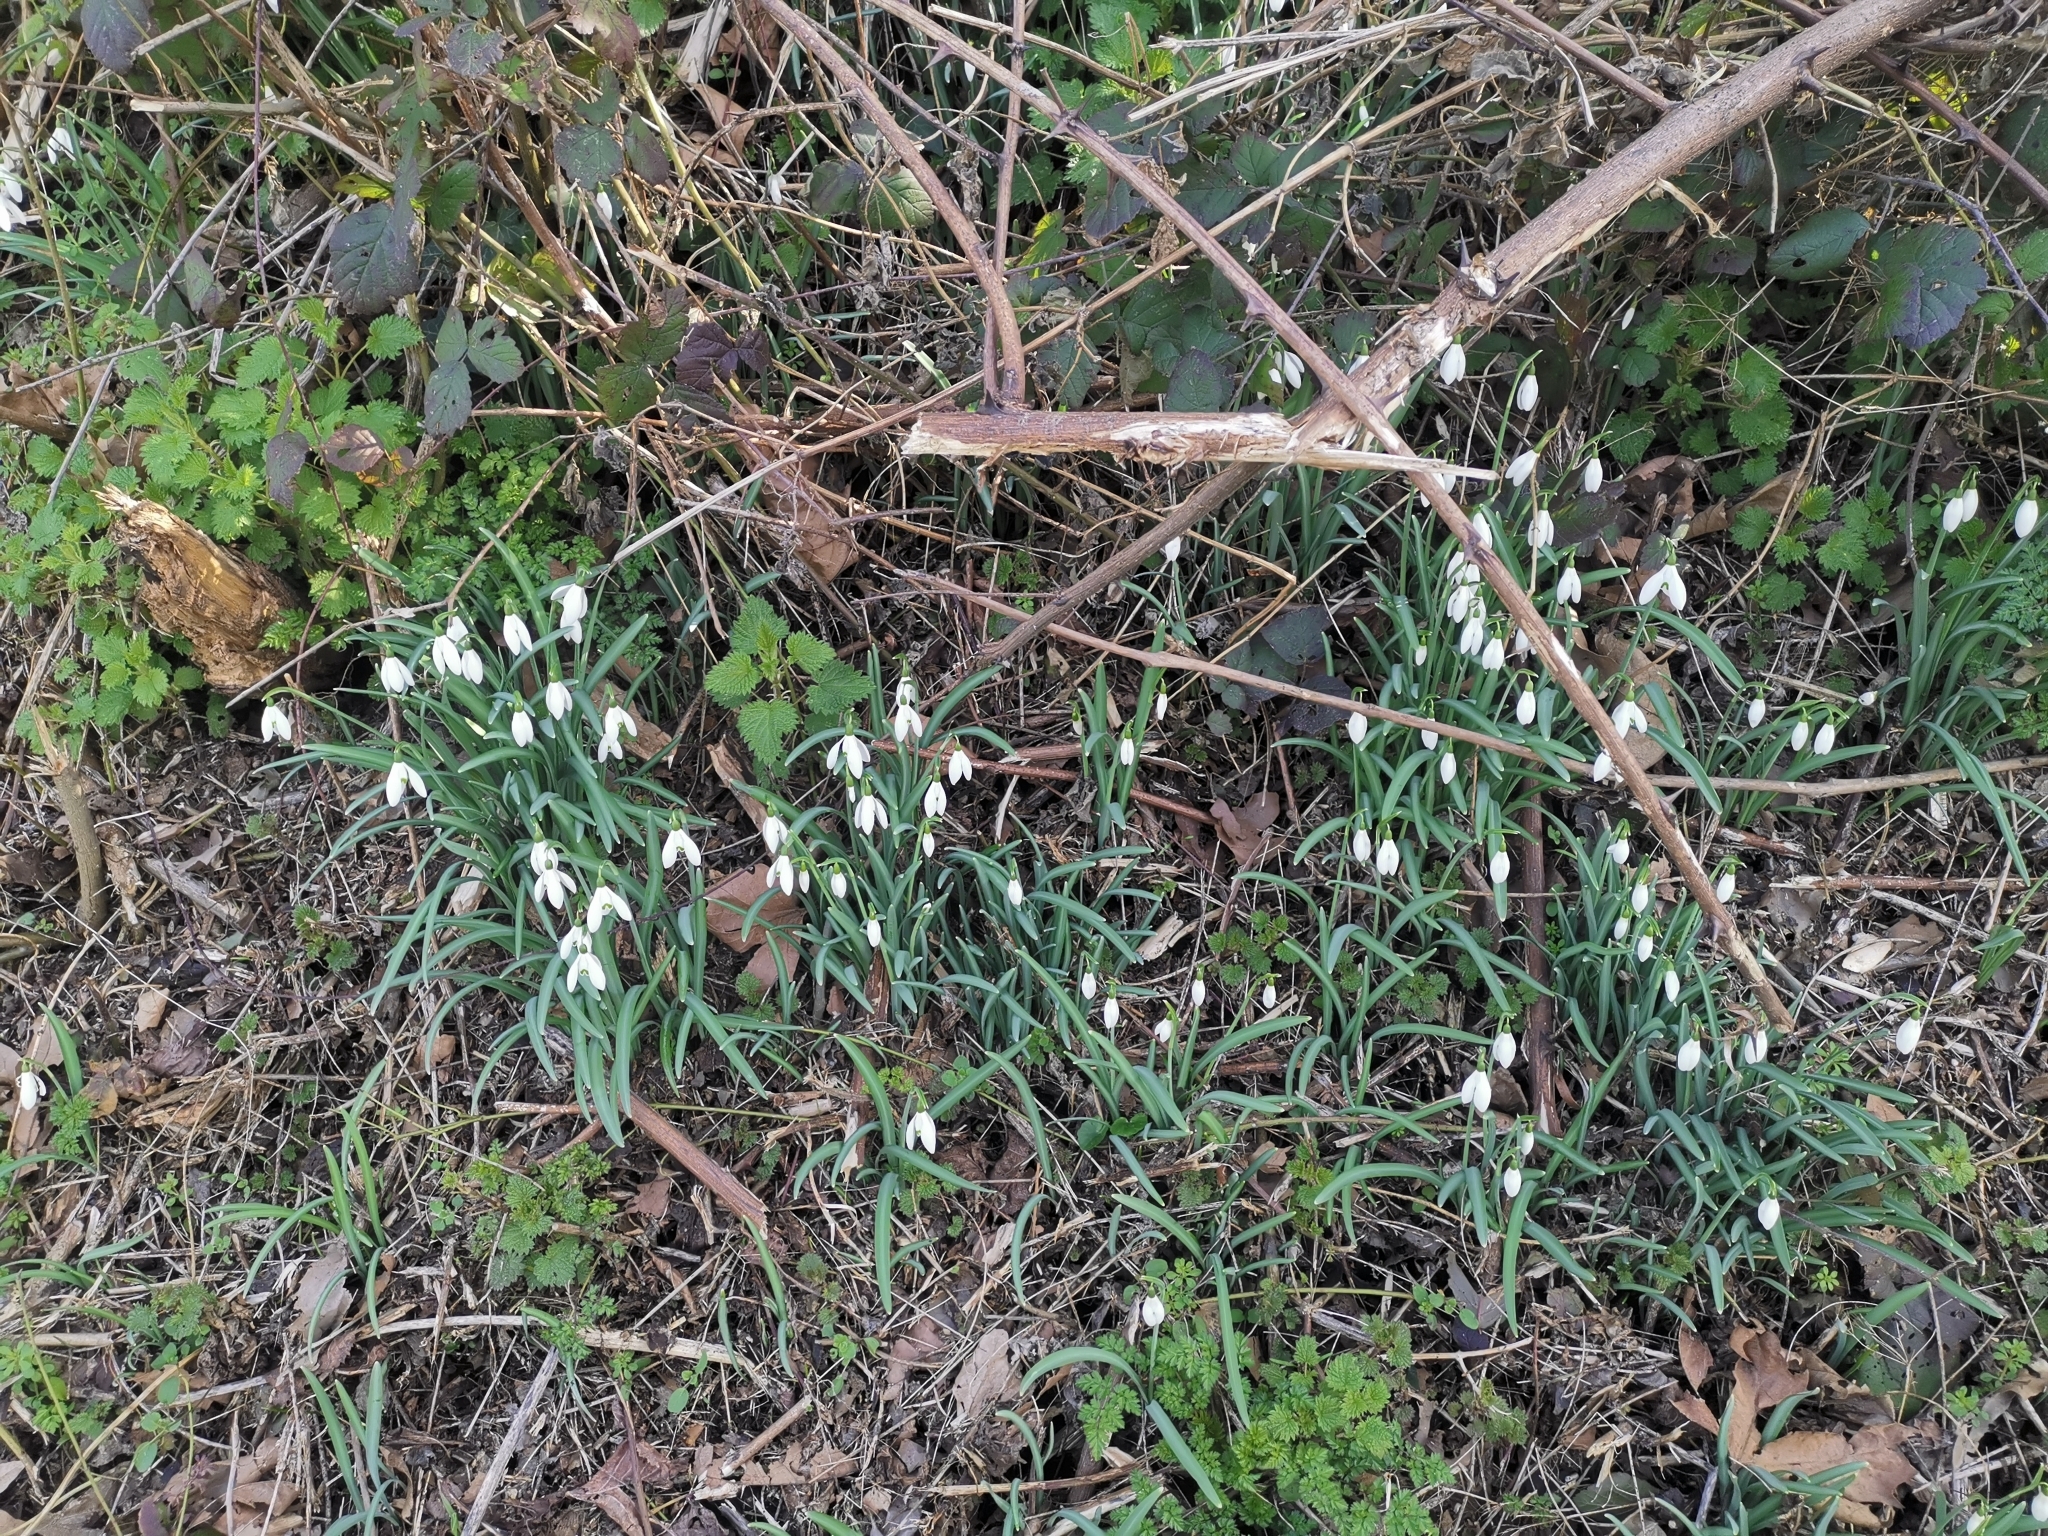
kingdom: Plantae
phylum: Tracheophyta
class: Liliopsida
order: Asparagales
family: Amaryllidaceae
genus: Galanthus
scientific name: Galanthus nivalis
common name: Snowdrop
